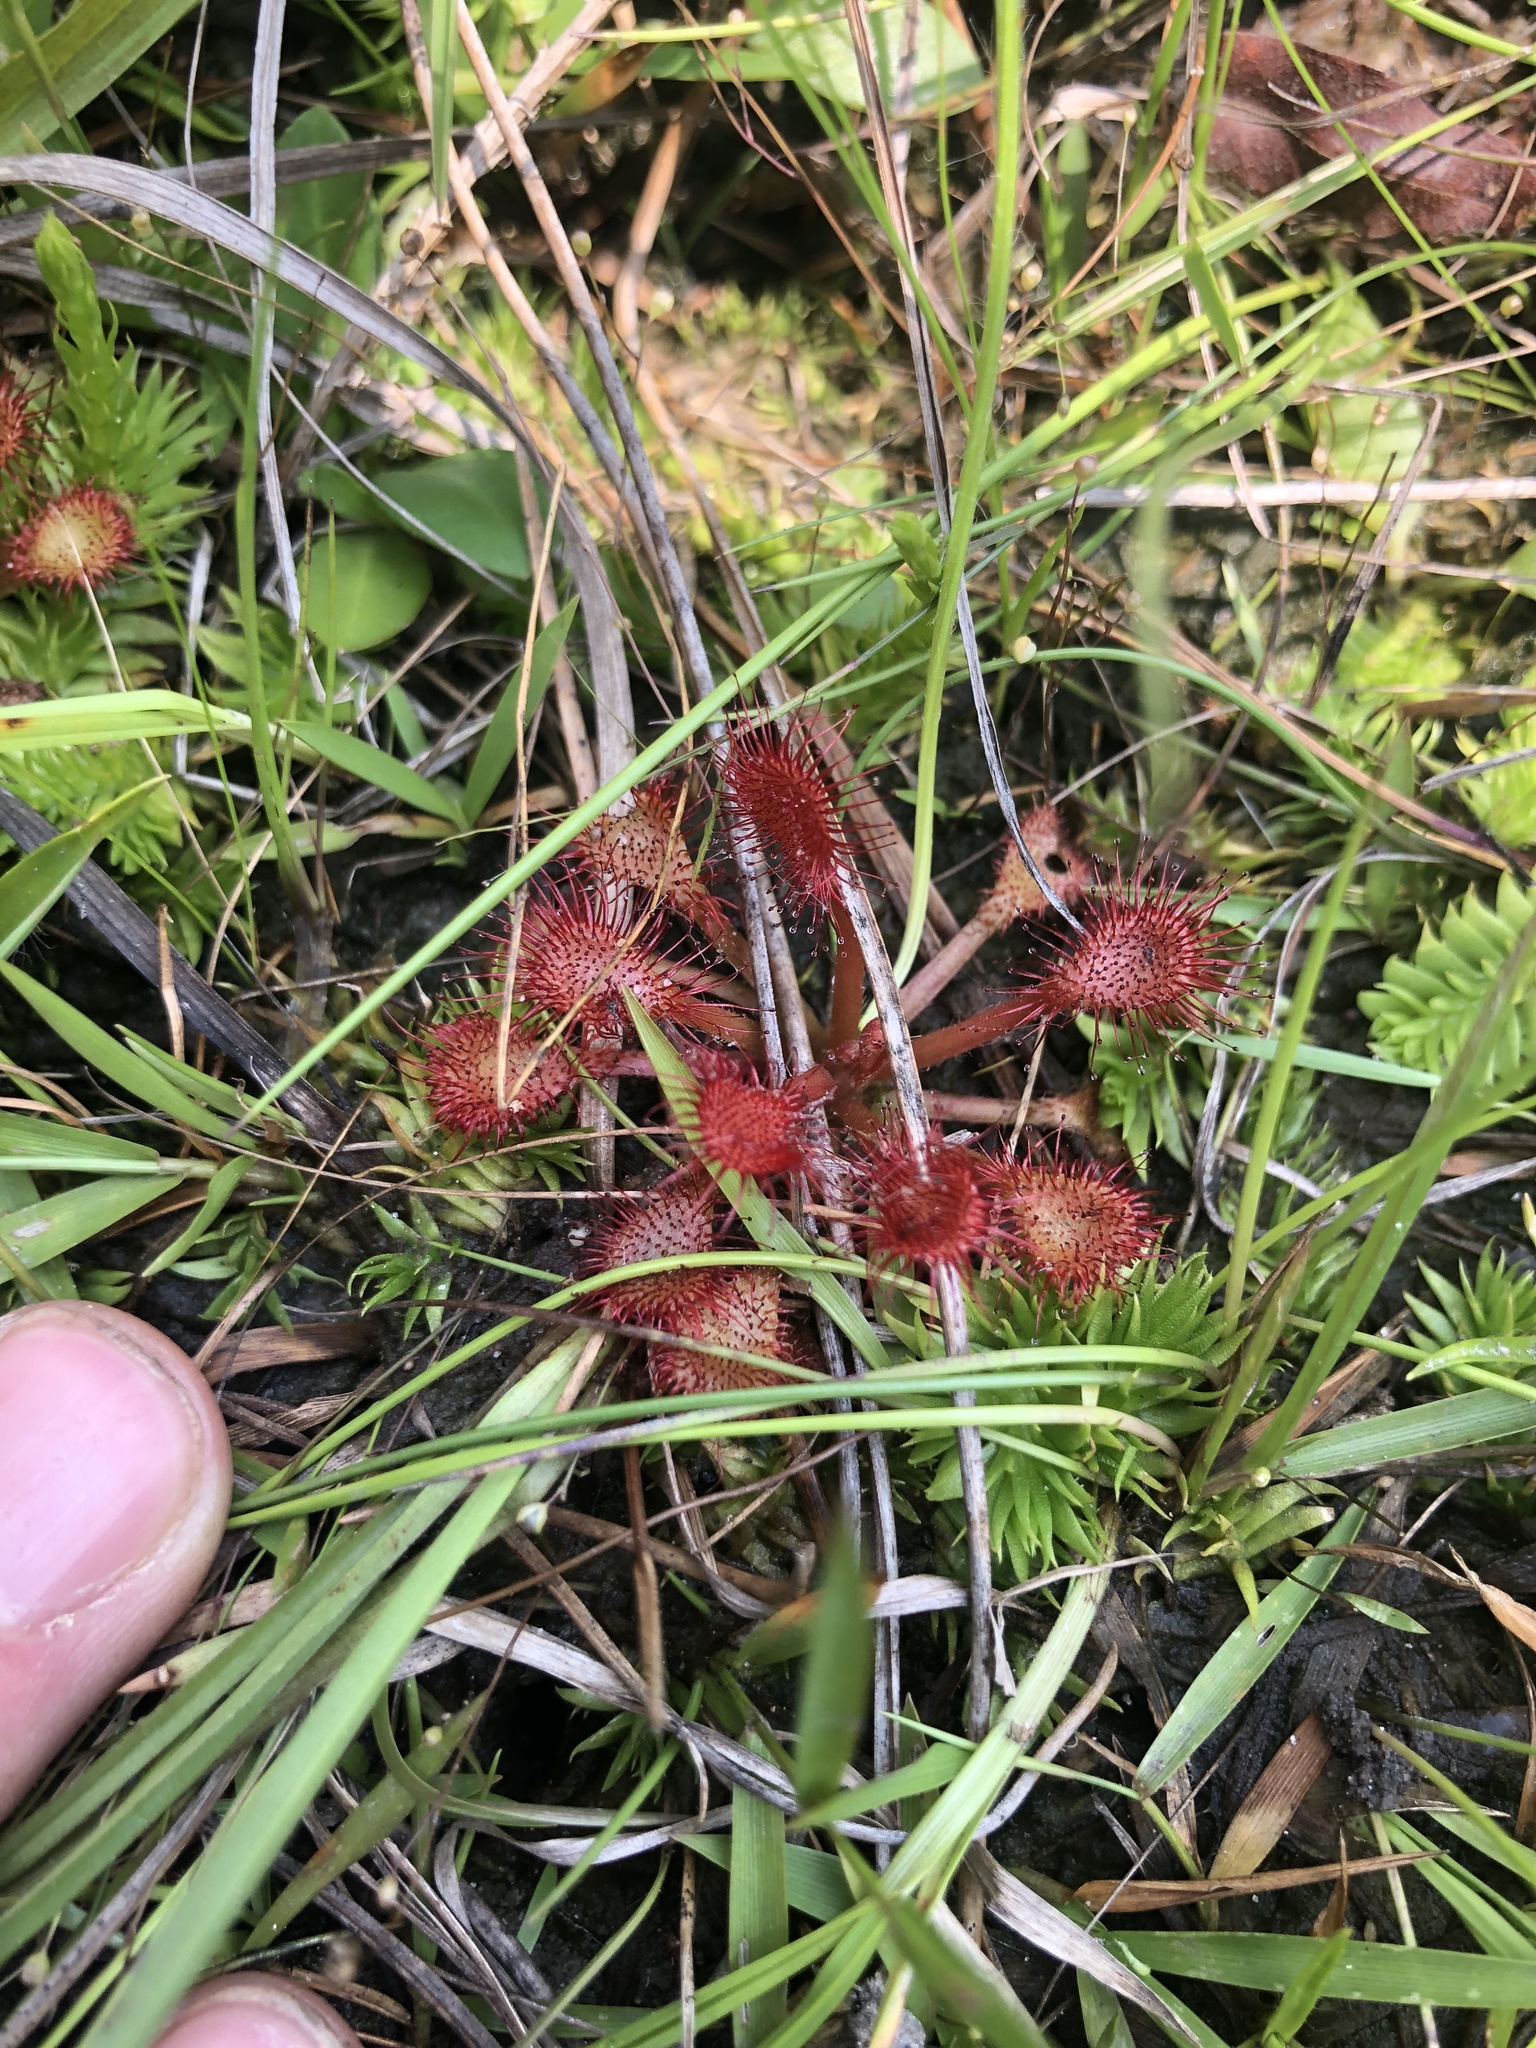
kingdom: Plantae
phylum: Tracheophyta
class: Magnoliopsida
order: Caryophyllales
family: Droseraceae
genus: Drosera
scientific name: Drosera capillaris
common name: Pink sundew
